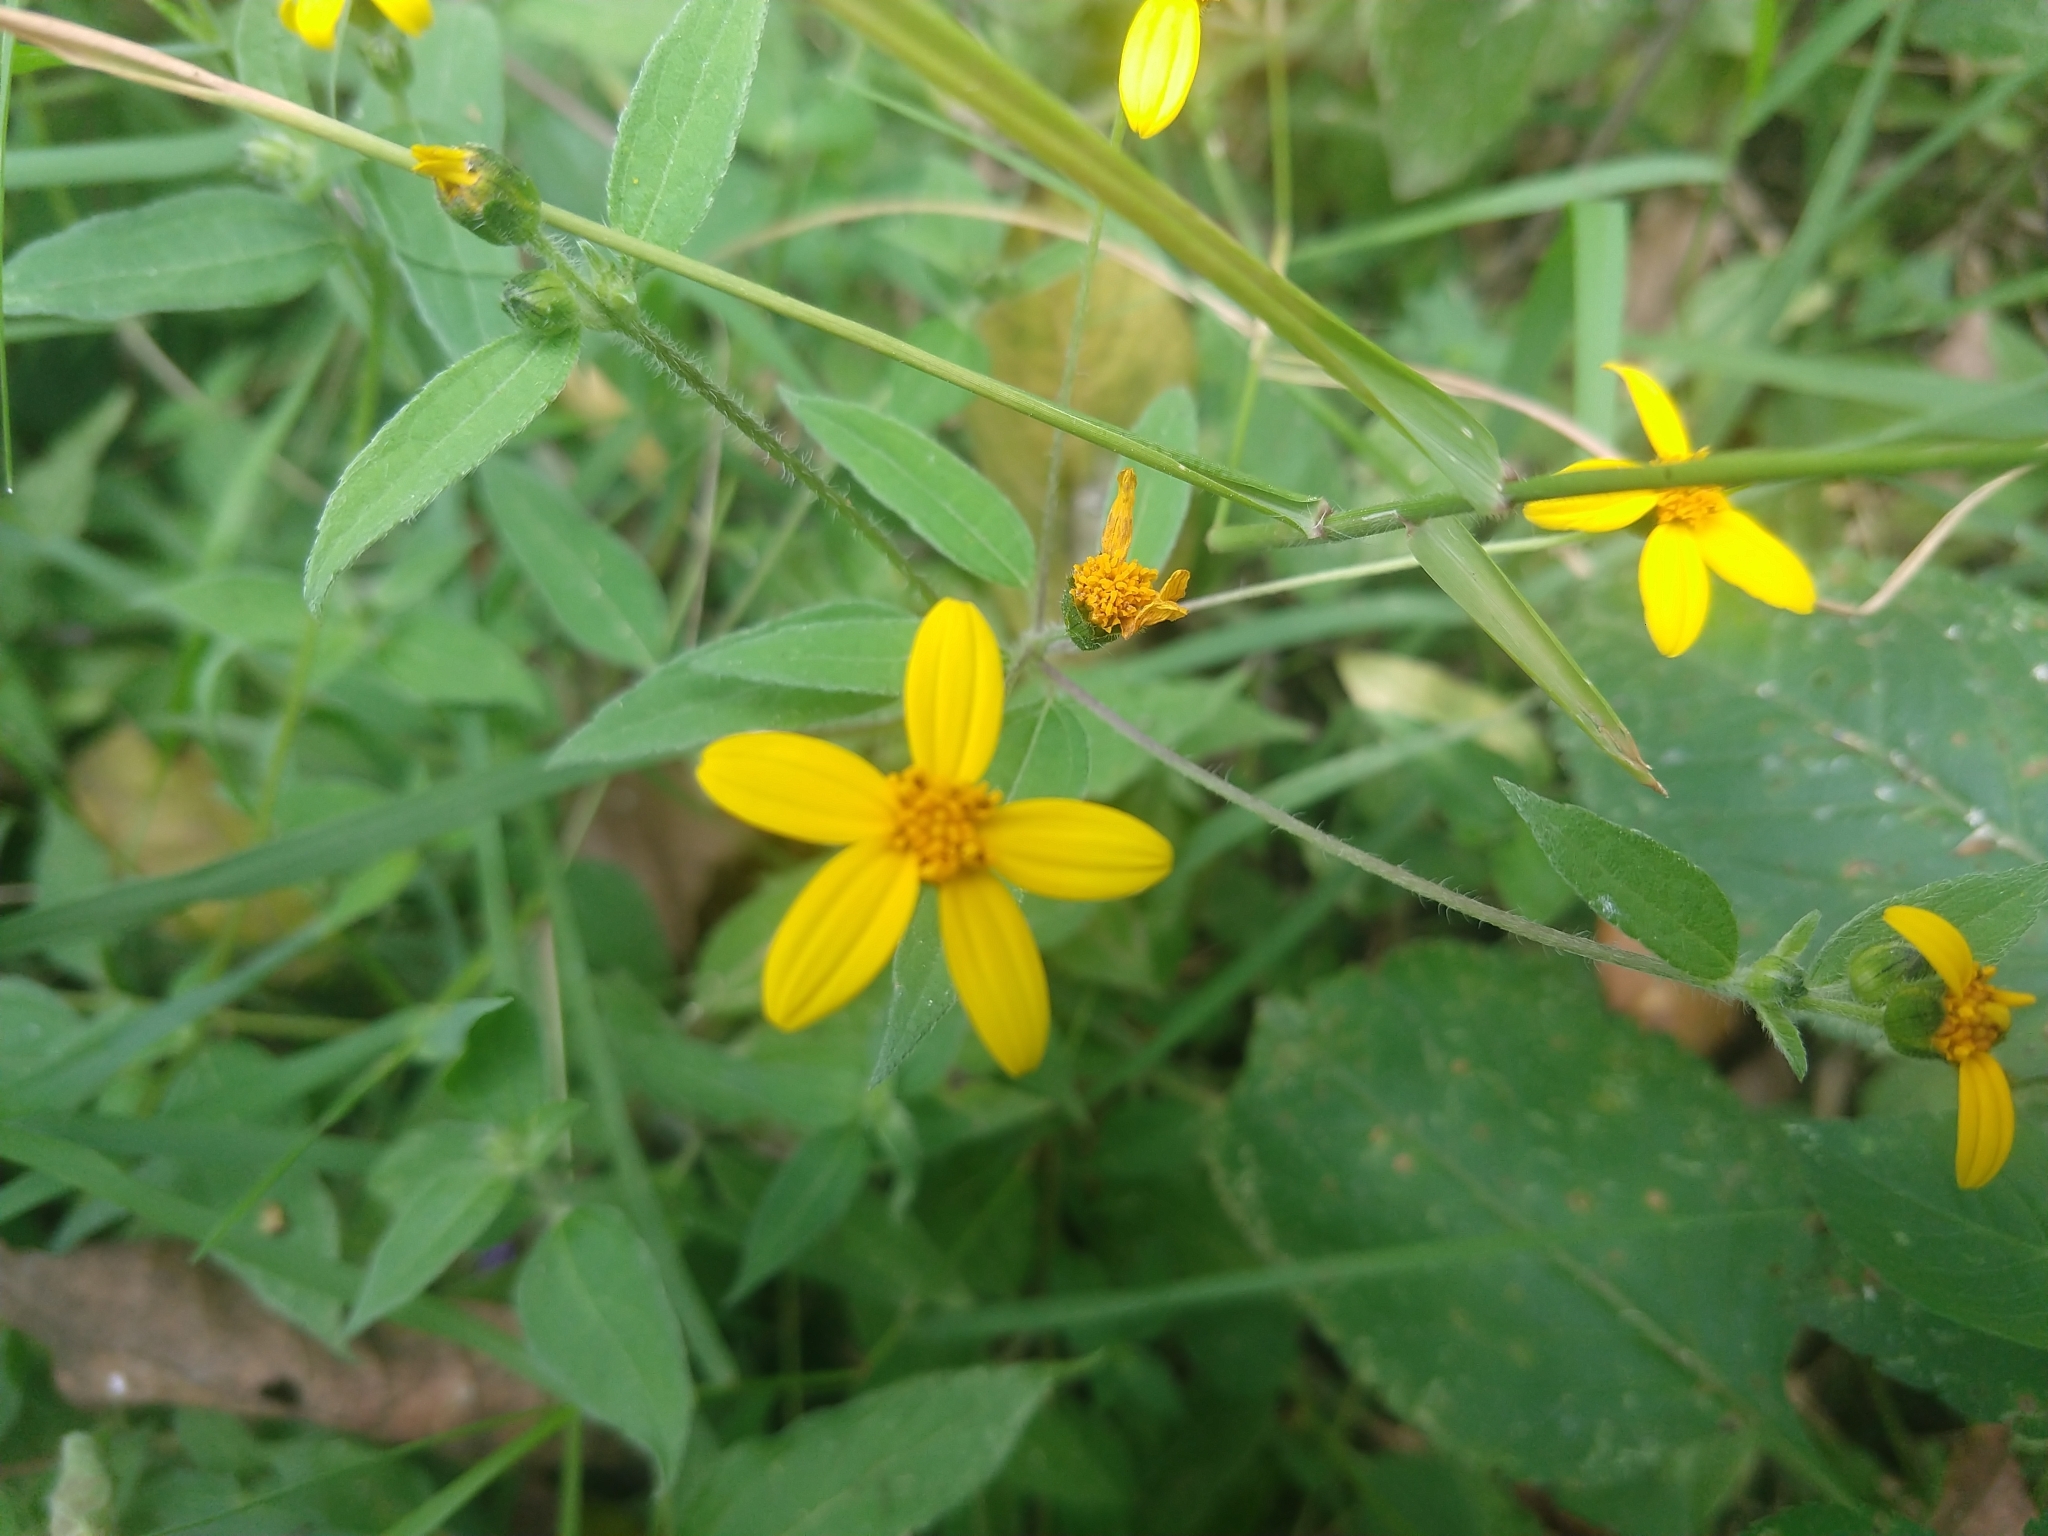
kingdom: Plantae
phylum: Tracheophyta
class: Magnoliopsida
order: Asterales
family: Asteraceae
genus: Aldama
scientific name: Aldama dentata
